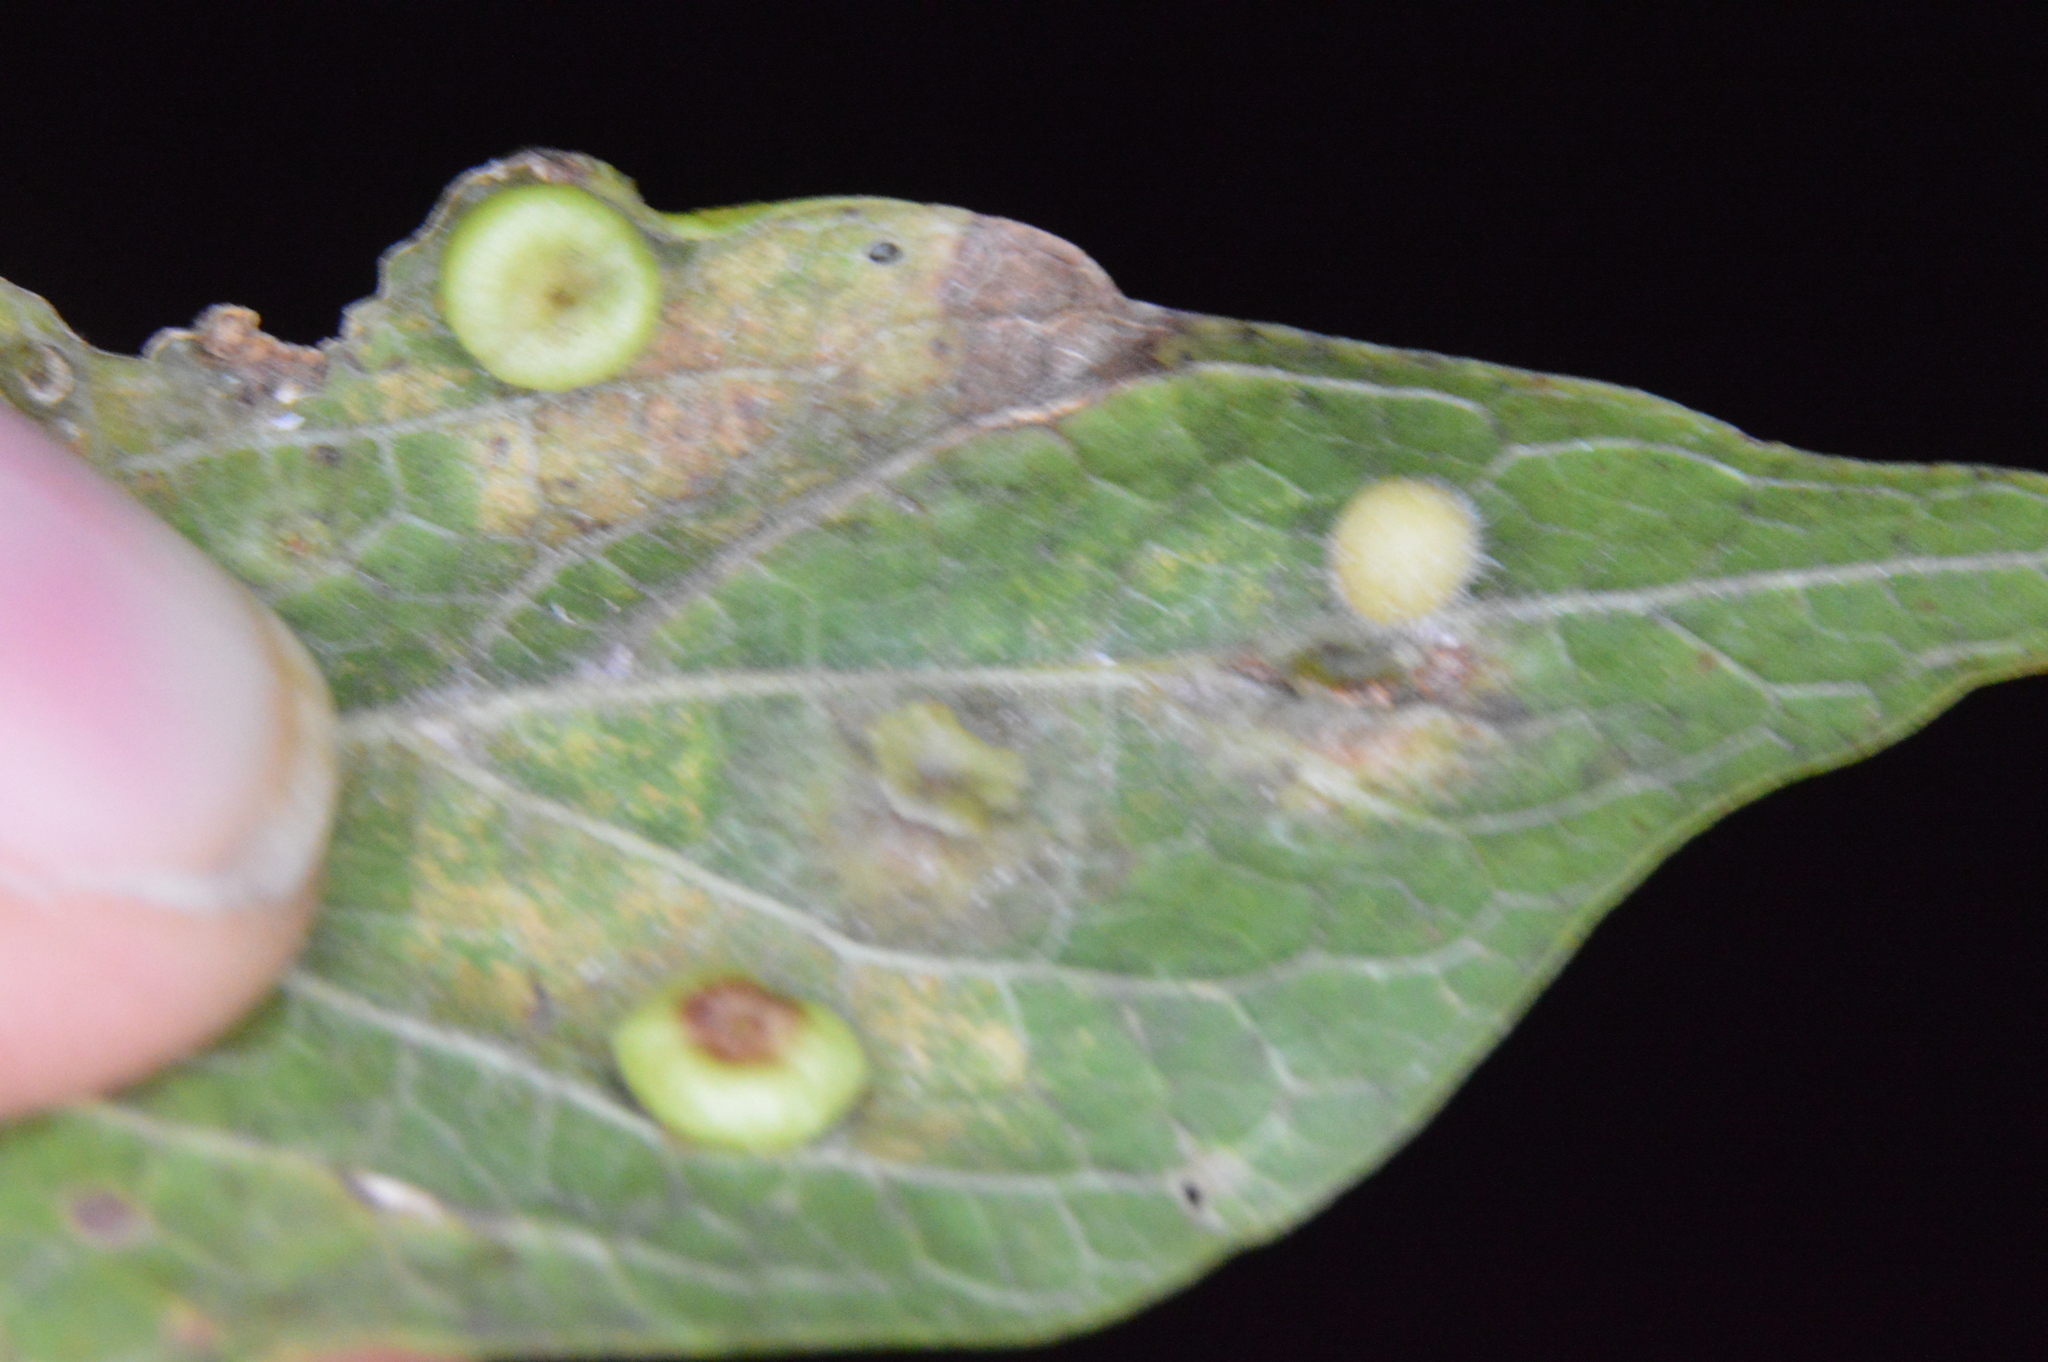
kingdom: Animalia
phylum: Arthropoda
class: Insecta
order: Hemiptera
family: Aphalaridae
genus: Pachypsylla
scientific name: Pachypsylla celtidisasterisca
